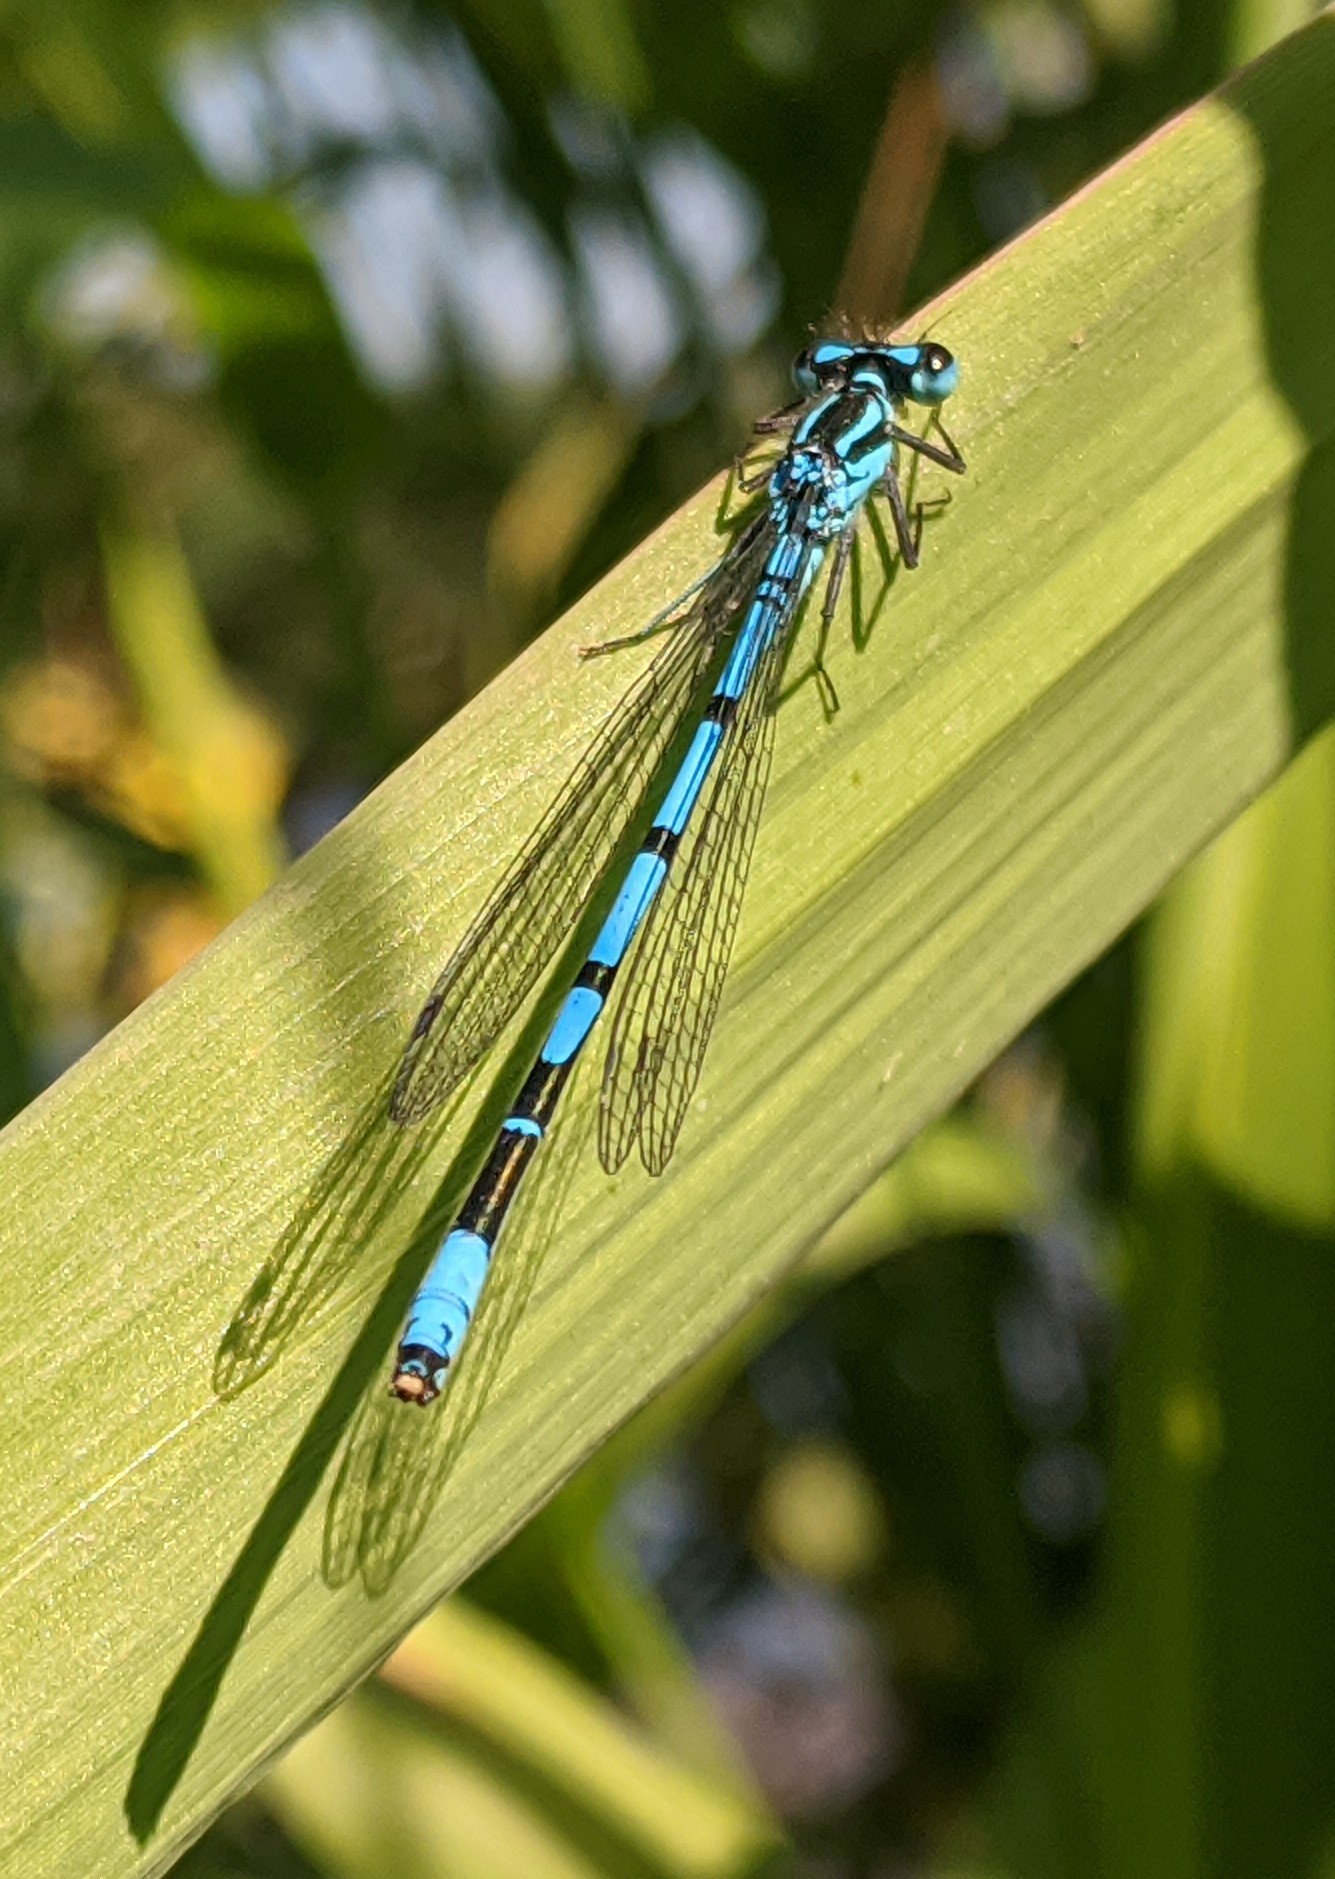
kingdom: Animalia
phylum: Arthropoda
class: Insecta
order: Odonata
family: Coenagrionidae
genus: Coenagrion
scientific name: Coenagrion puella
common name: Azure damselfly
